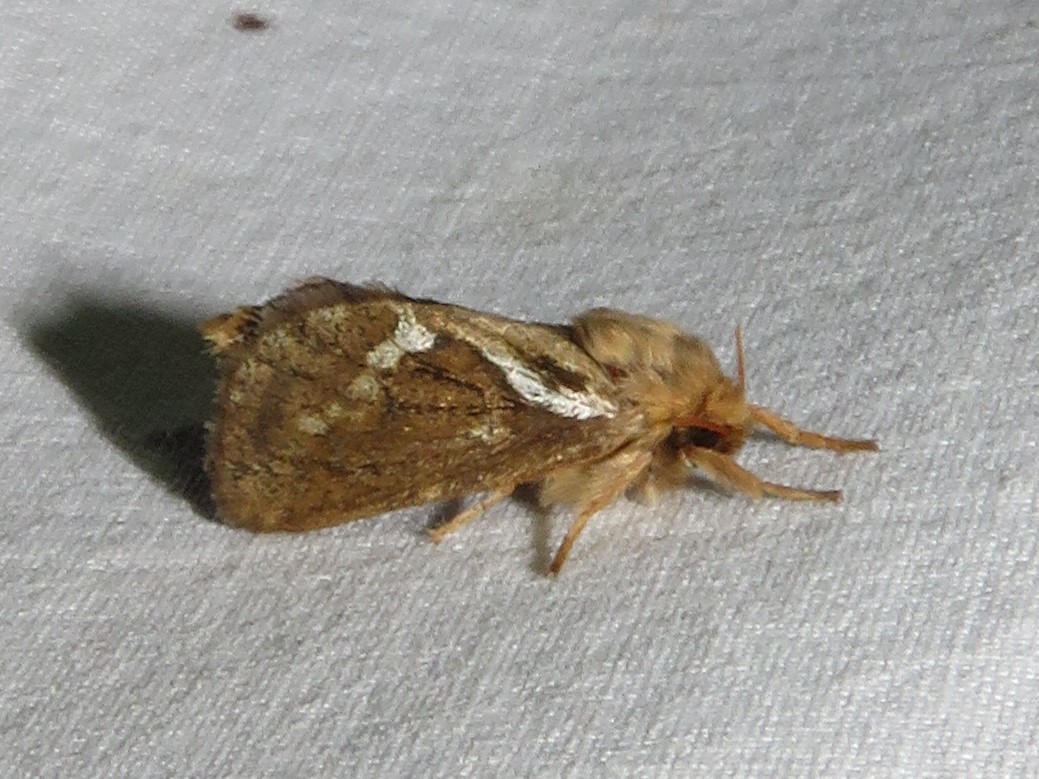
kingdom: Animalia
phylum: Arthropoda
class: Insecta
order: Lepidoptera
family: Hepialidae
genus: Korscheltellus
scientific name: Korscheltellus lupulina
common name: Common swift
